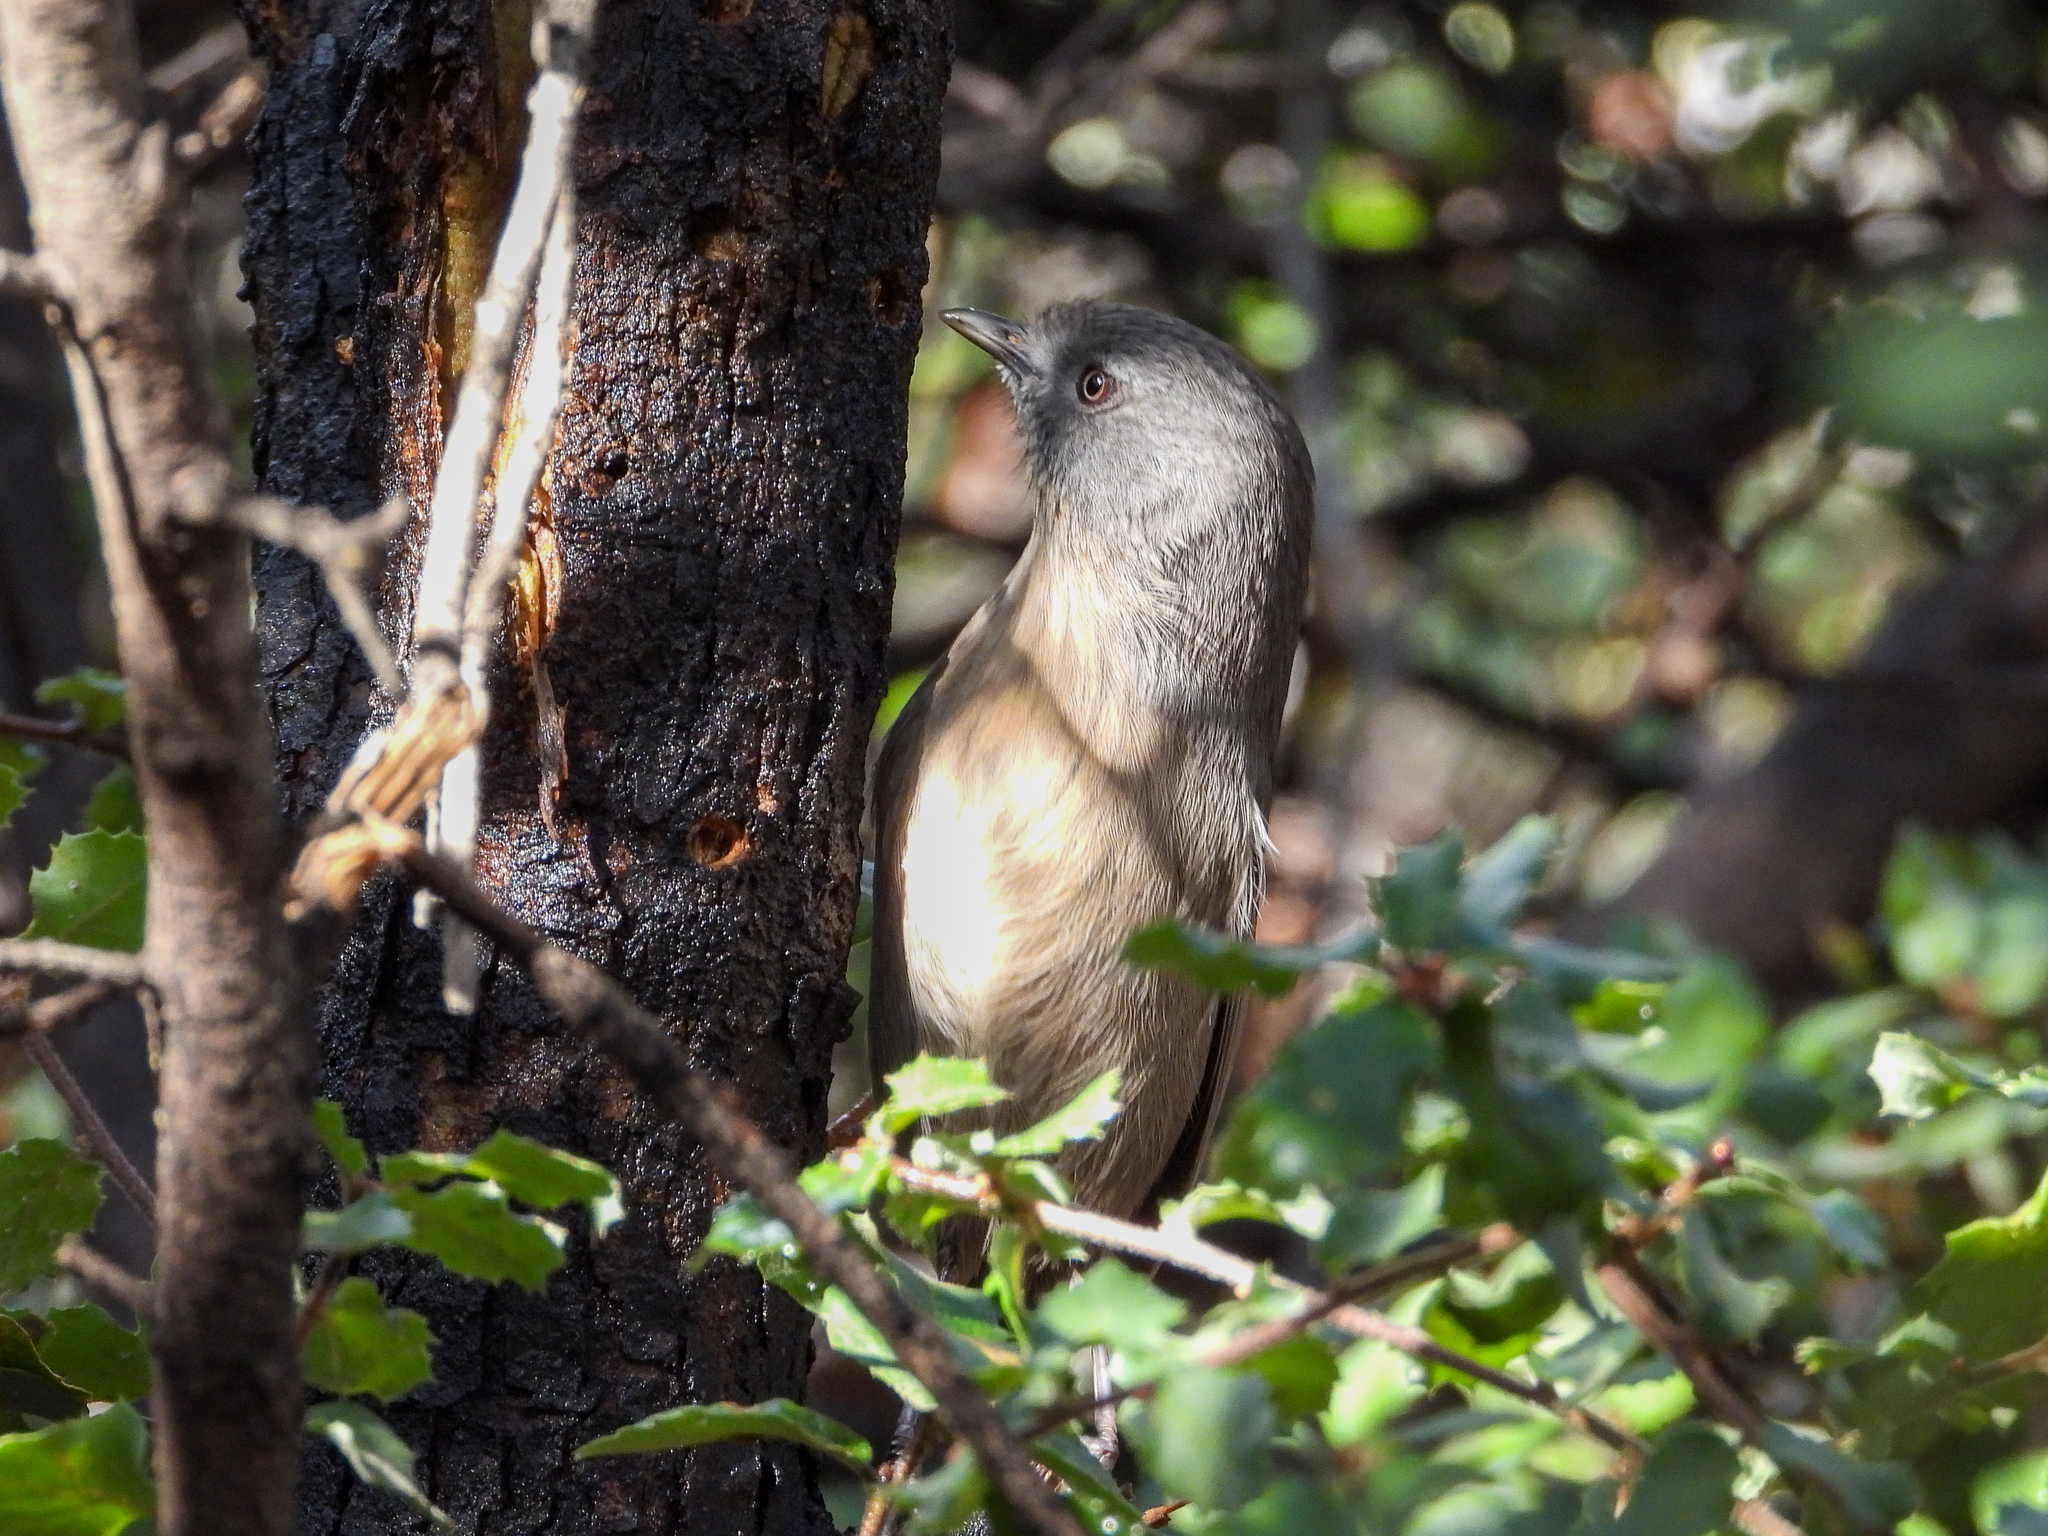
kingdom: Animalia
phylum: Chordata
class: Aves
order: Passeriformes
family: Sylviidae
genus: Chamaea
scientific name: Chamaea fasciata
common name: Wrentit
